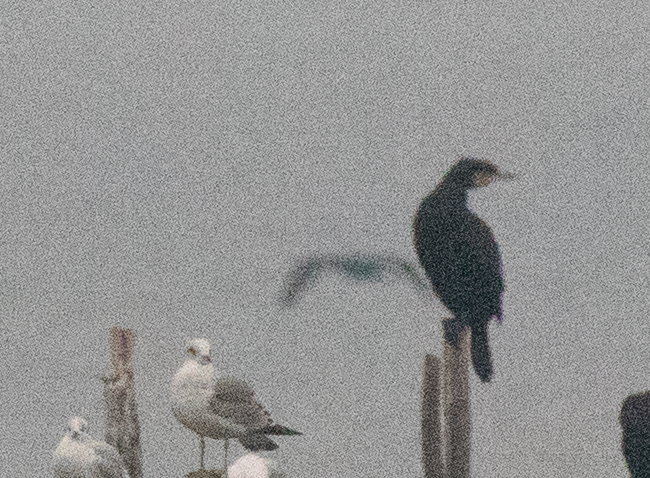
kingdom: Animalia
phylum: Chordata
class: Aves
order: Charadriiformes
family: Laridae
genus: Larus
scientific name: Larus canus
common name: Mew gull
